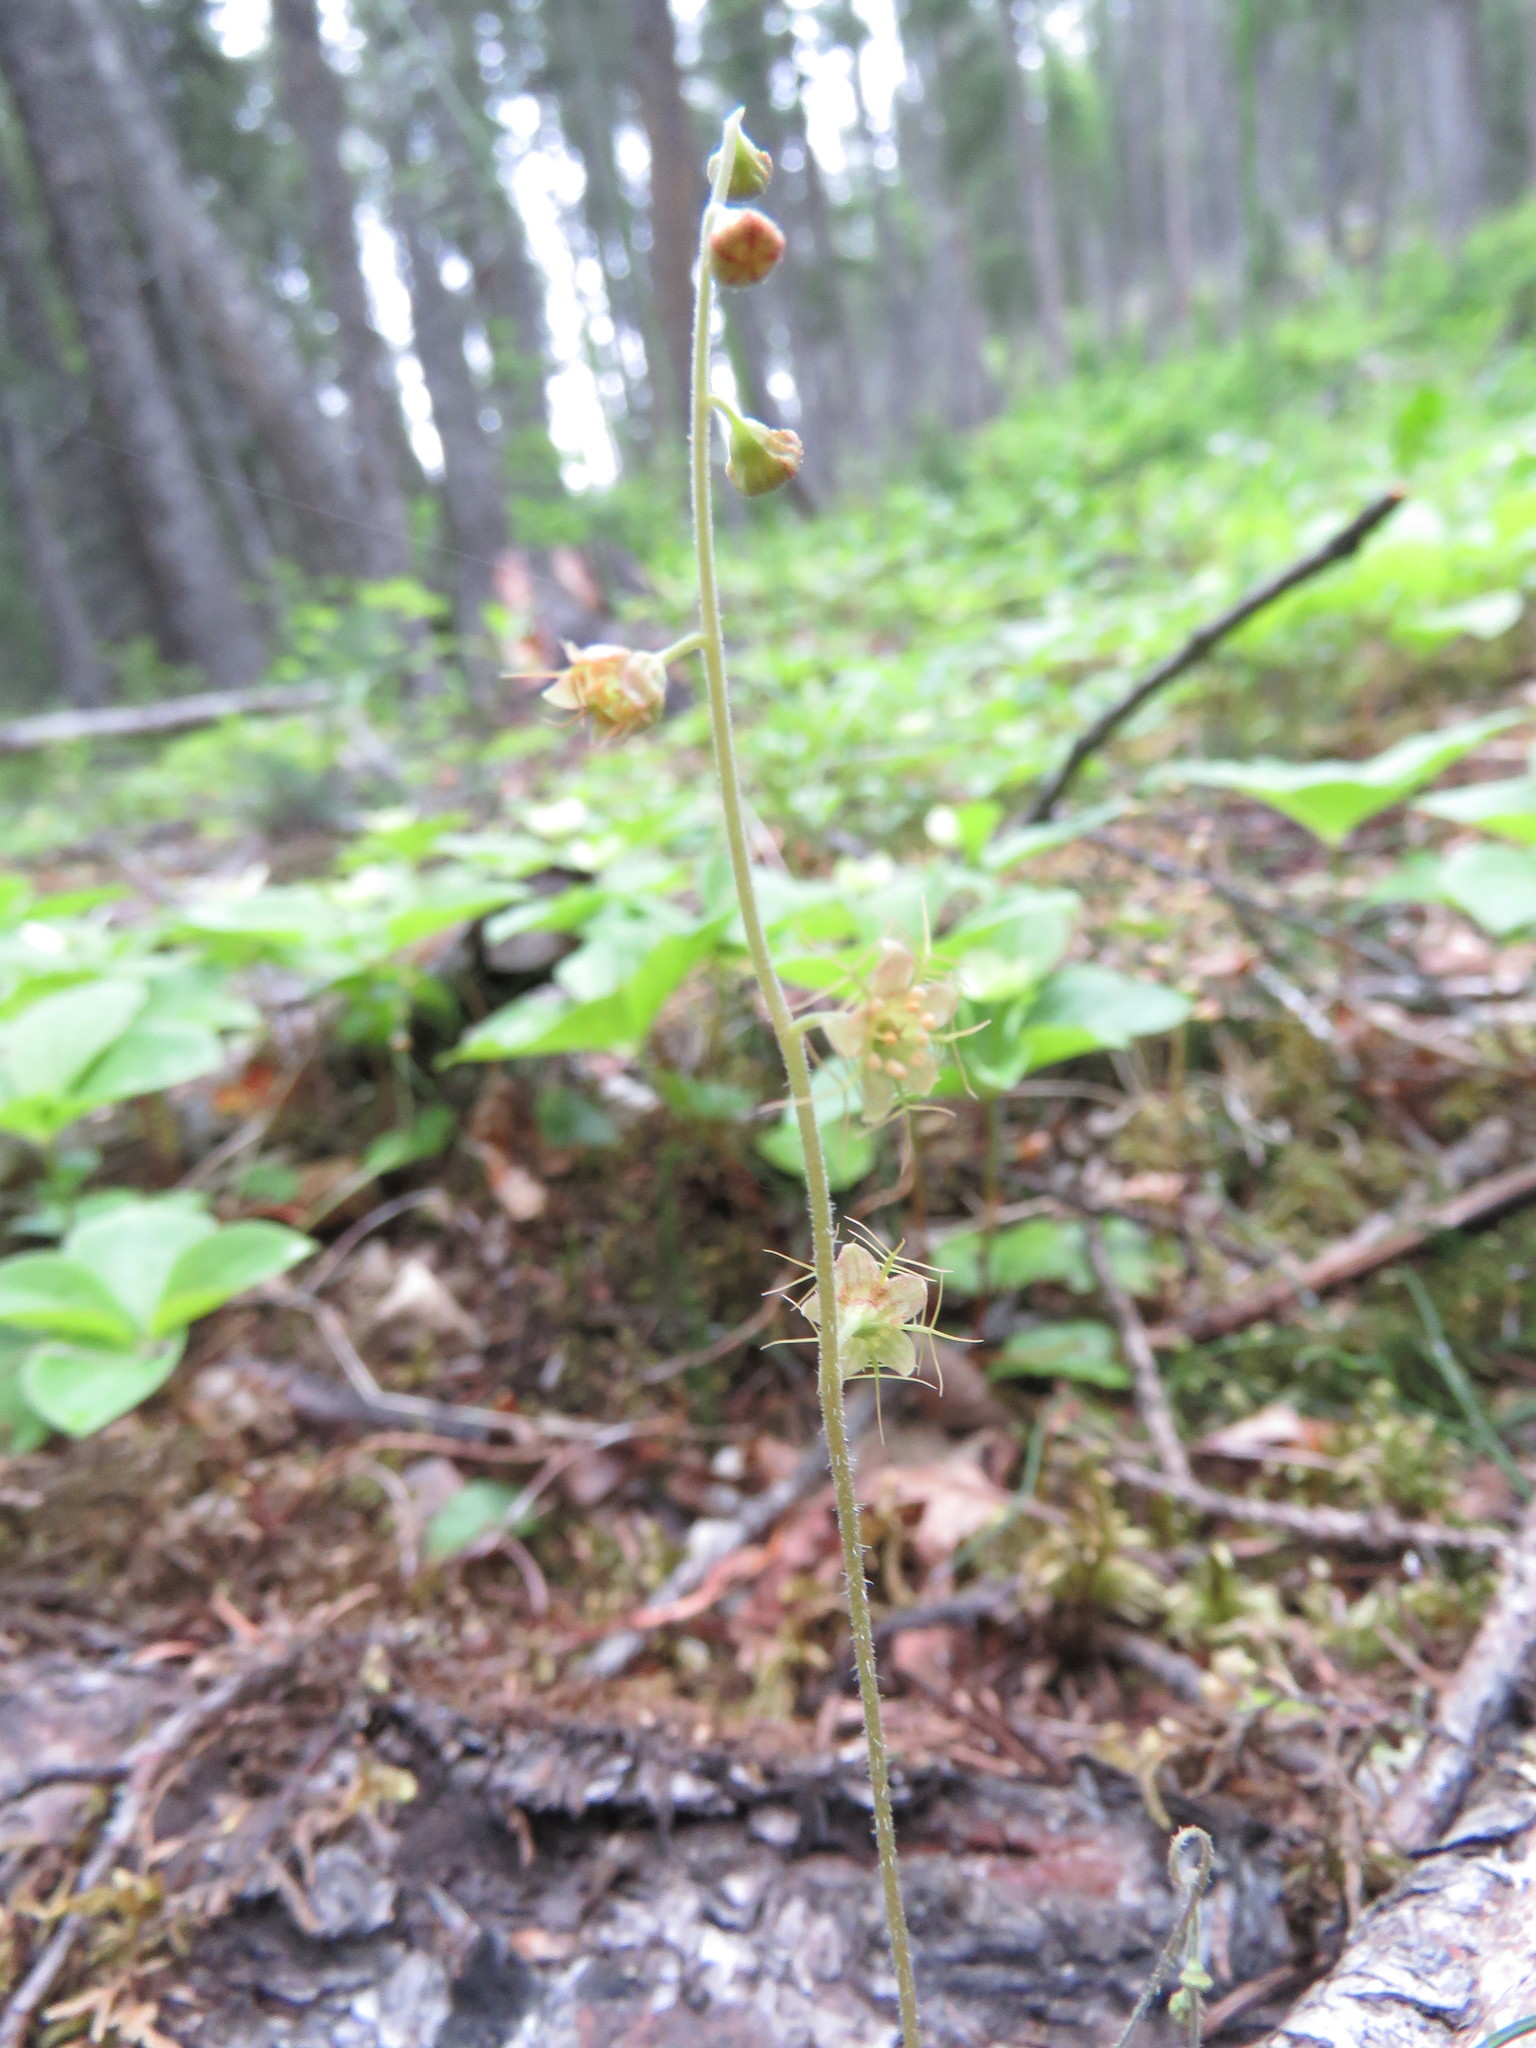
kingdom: Plantae
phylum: Tracheophyta
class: Magnoliopsida
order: Saxifragales
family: Saxifragaceae
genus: Mitella
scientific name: Mitella nuda
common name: Bare-stemmed bishop's-cap
